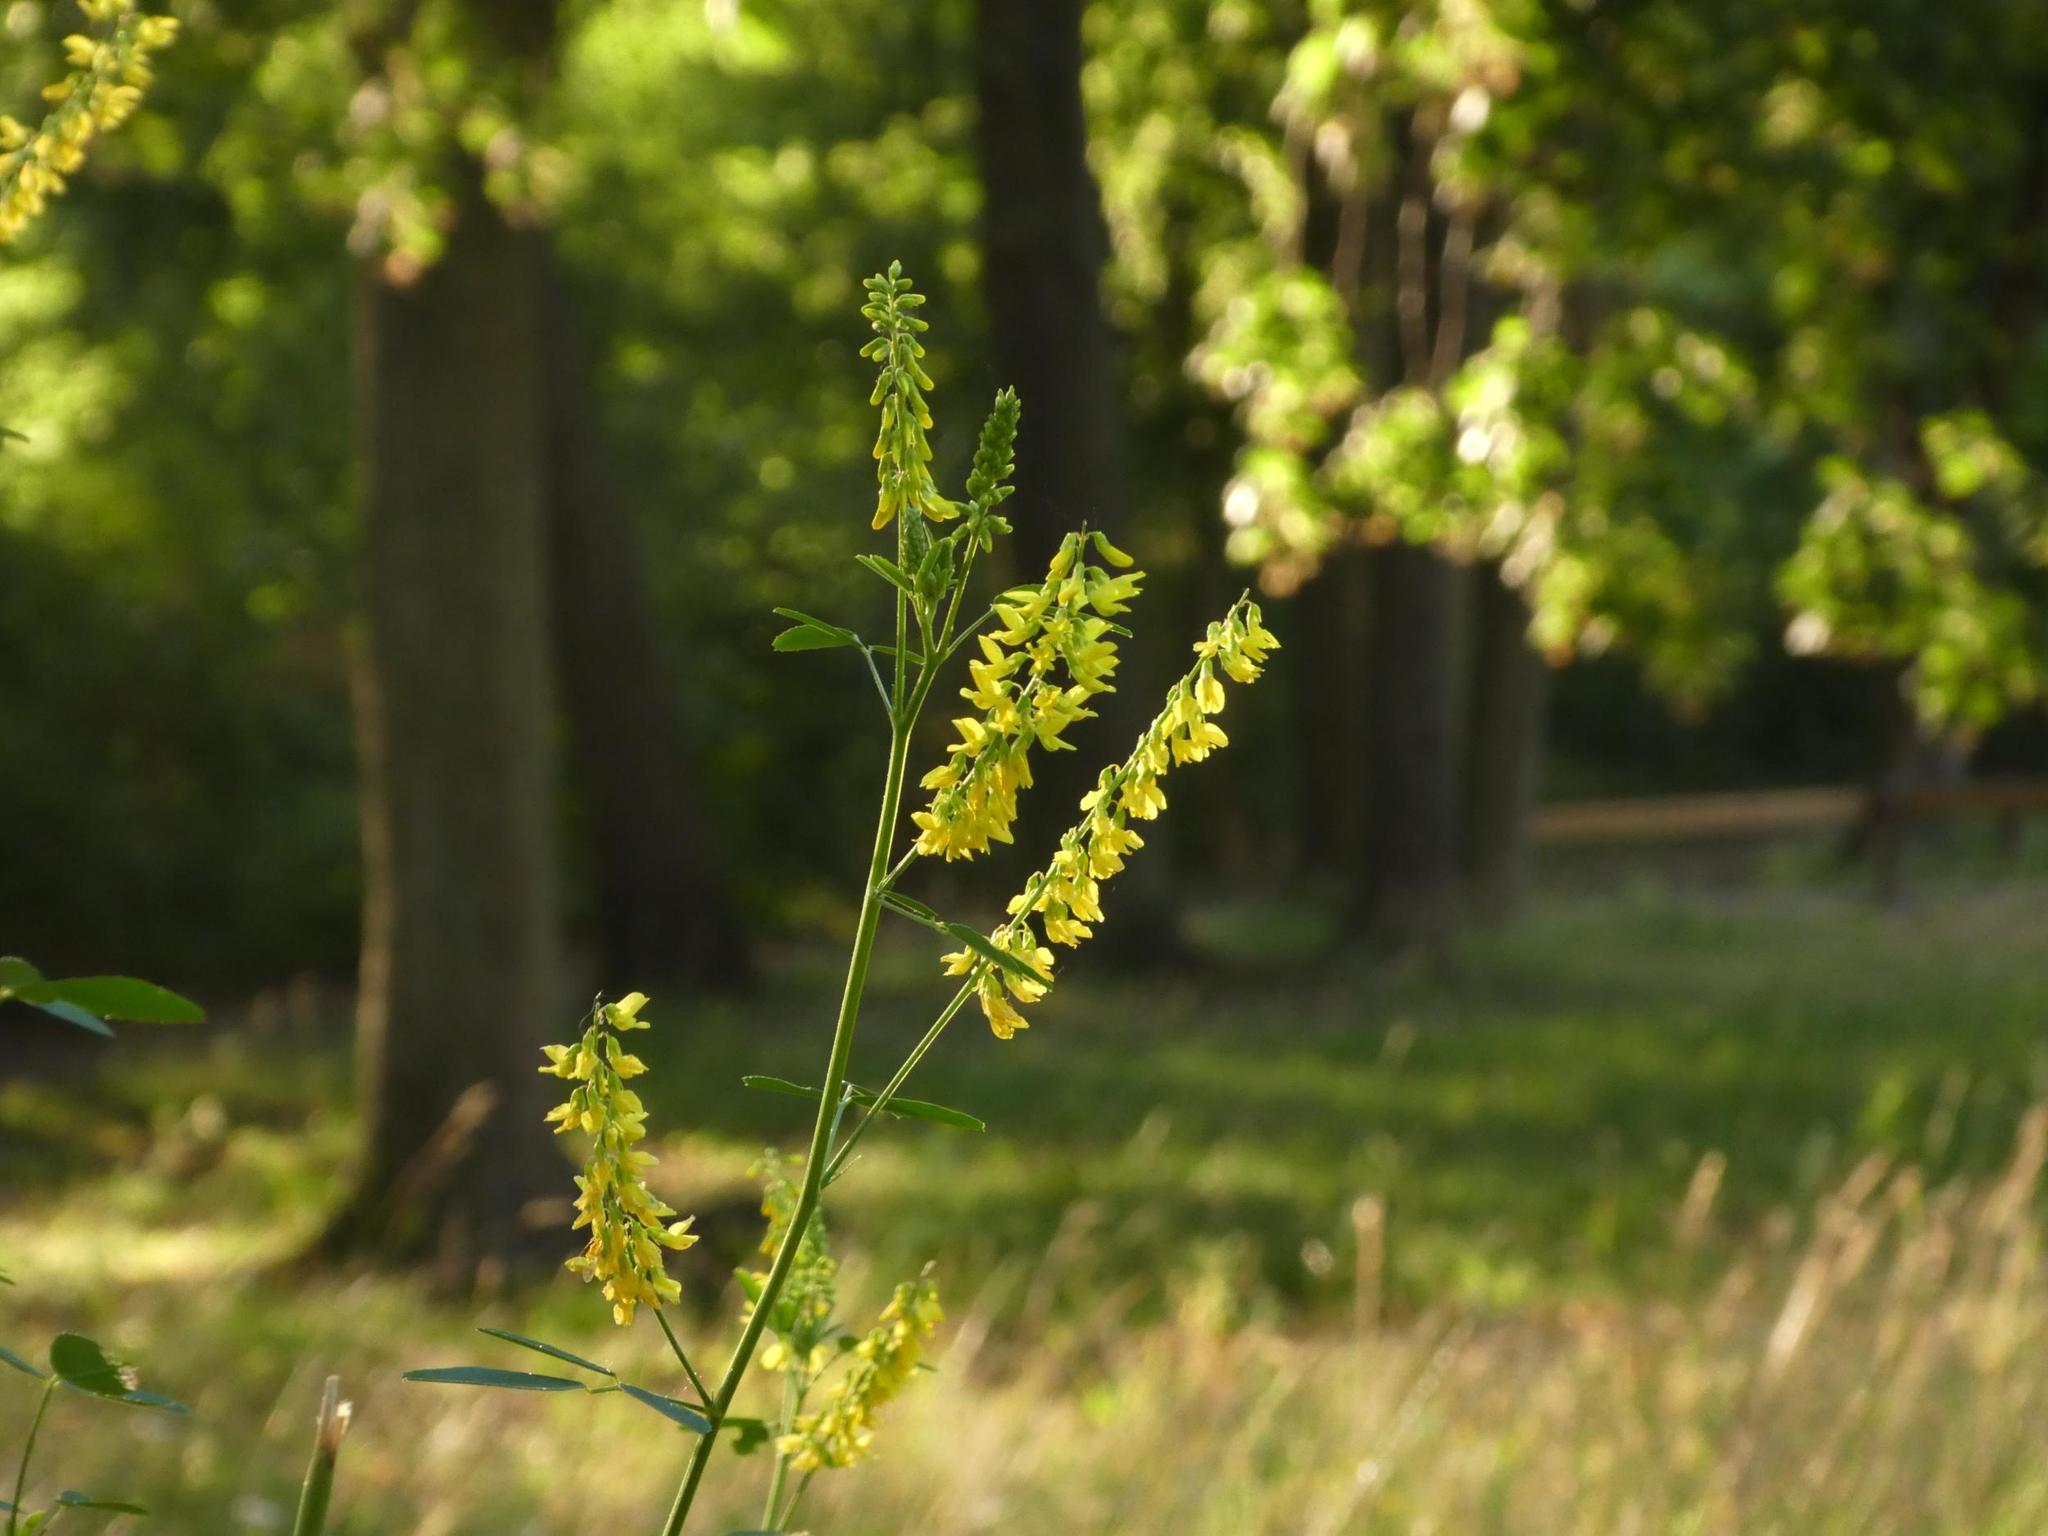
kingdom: Plantae
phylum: Tracheophyta
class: Magnoliopsida
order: Fabales
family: Fabaceae
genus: Melilotus
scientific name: Melilotus officinalis
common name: Sweetclover
